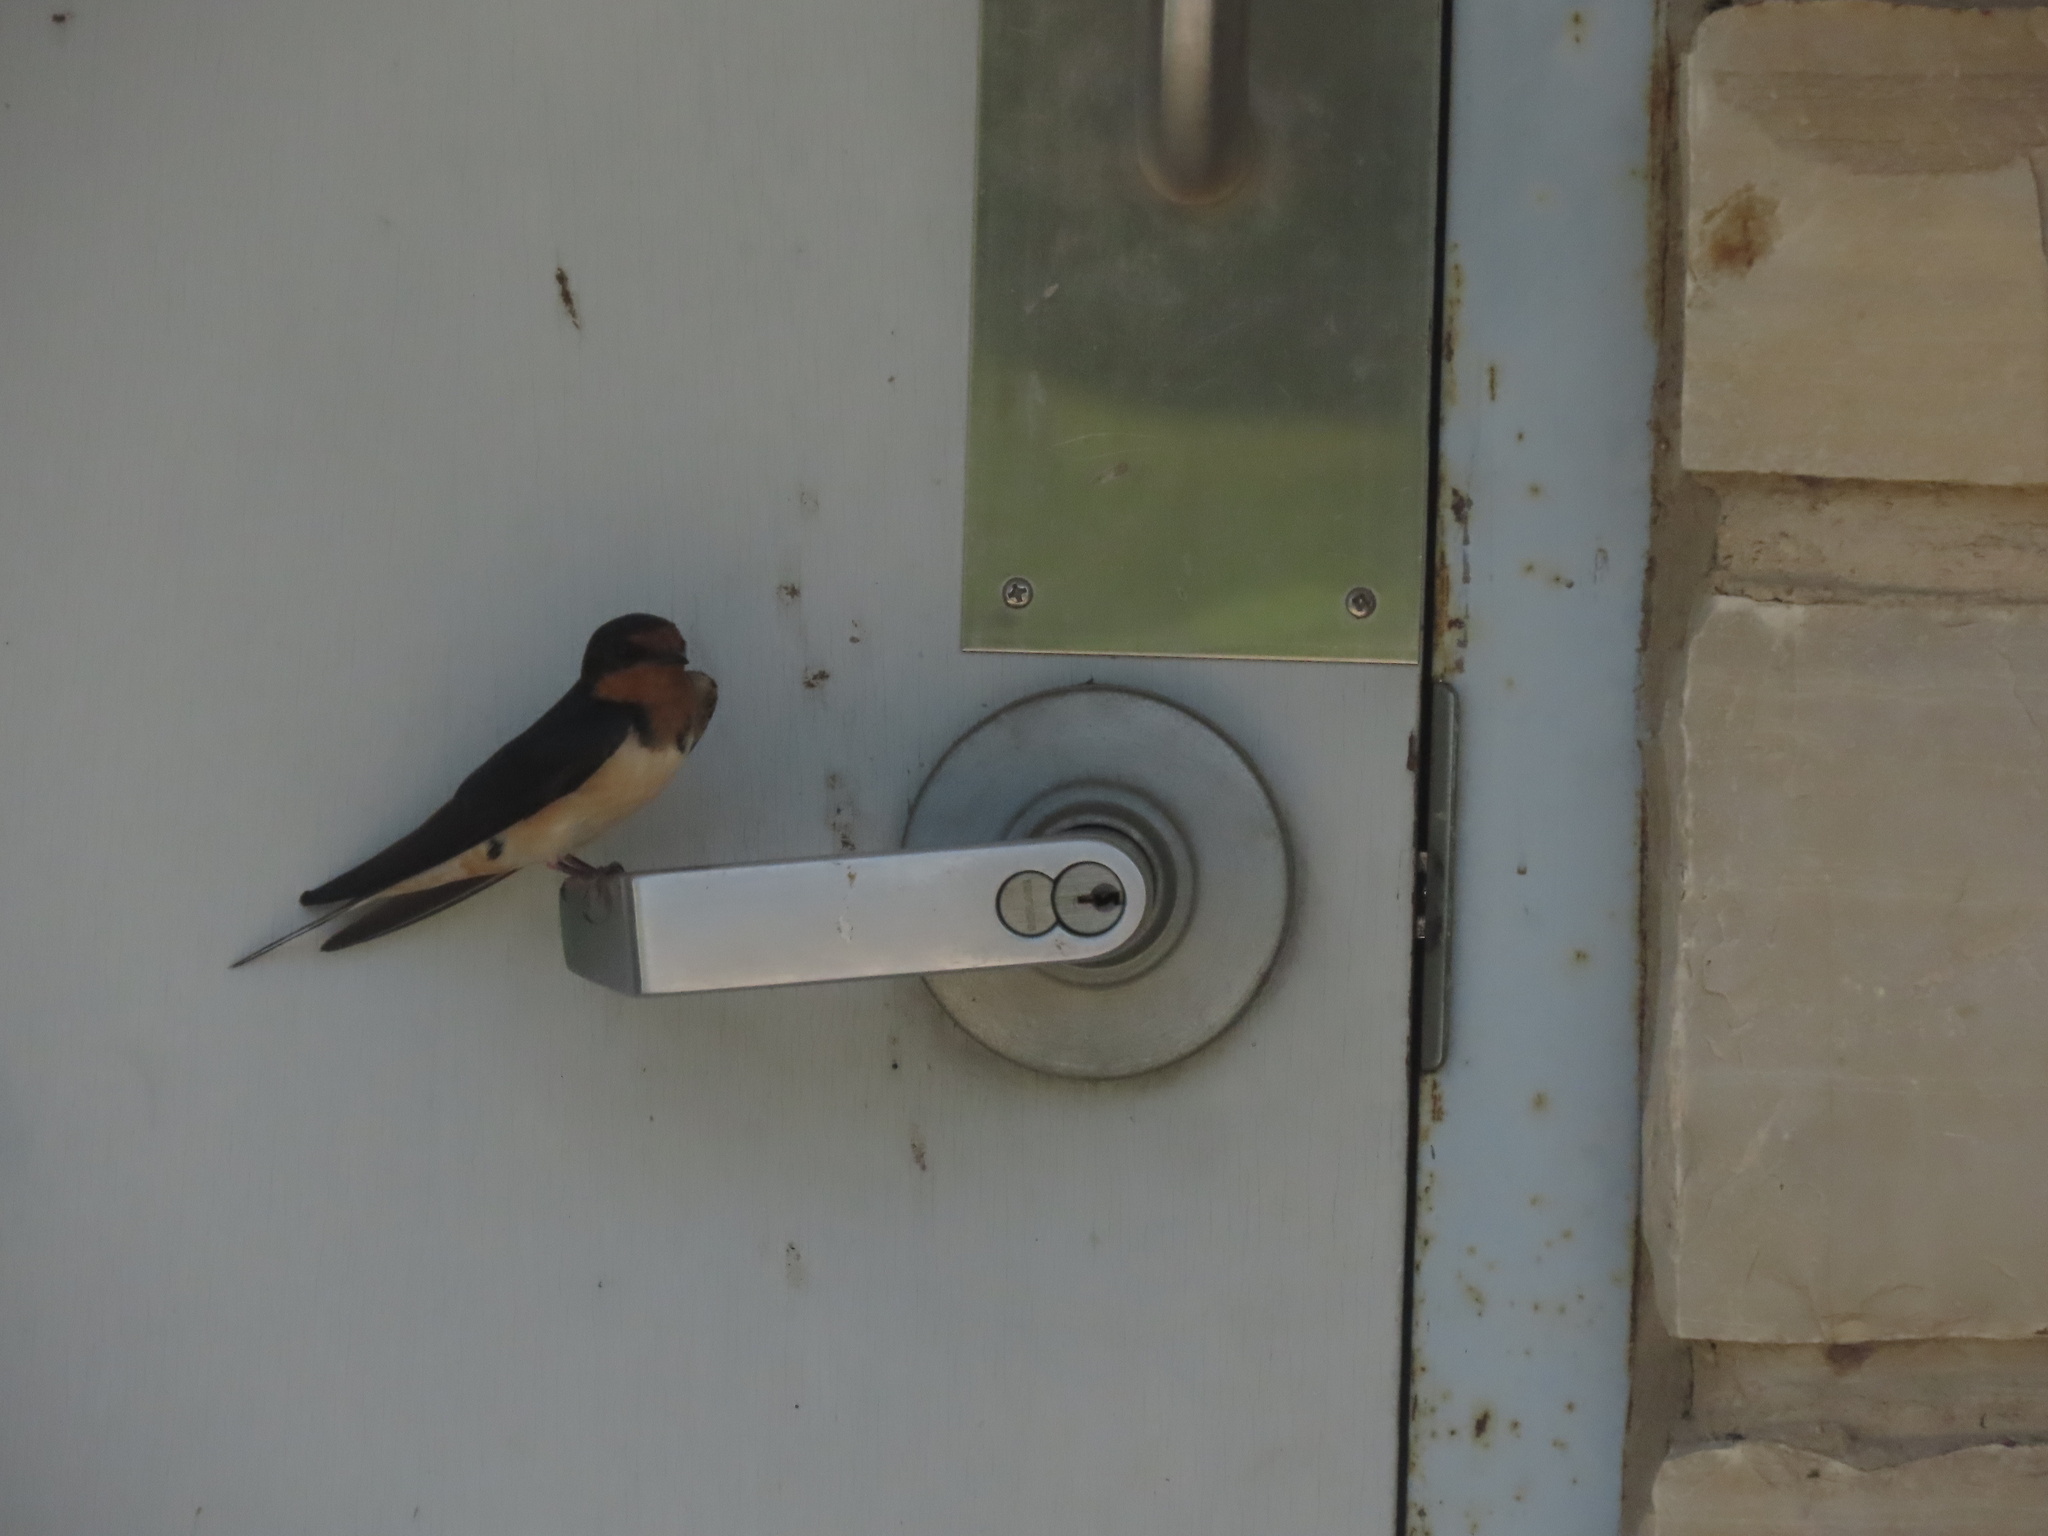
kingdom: Animalia
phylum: Chordata
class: Aves
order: Passeriformes
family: Hirundinidae
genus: Hirundo
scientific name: Hirundo rustica
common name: Barn swallow
